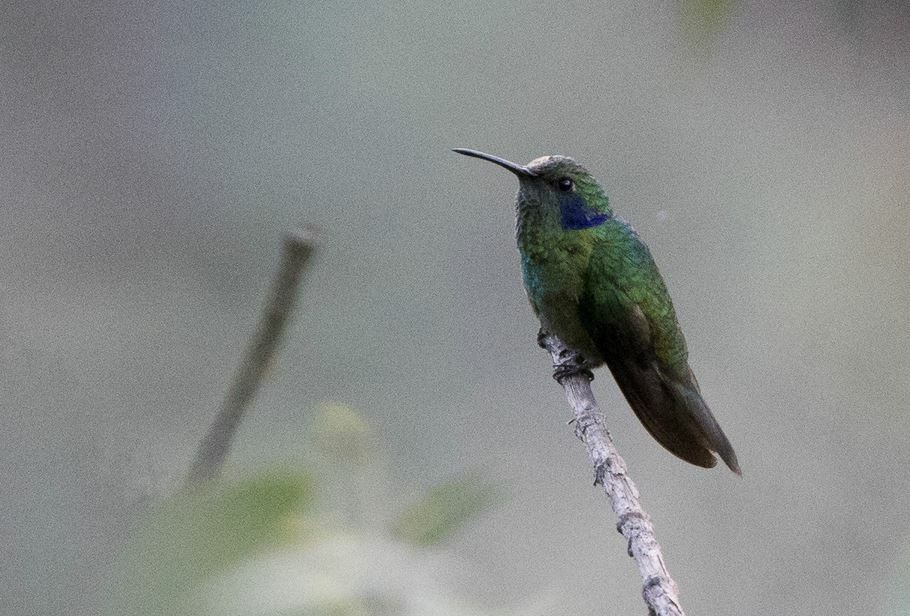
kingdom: Animalia
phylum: Chordata
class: Aves
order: Apodiformes
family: Trochilidae
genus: Colibri
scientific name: Colibri cyanotus
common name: Lesser violetear
